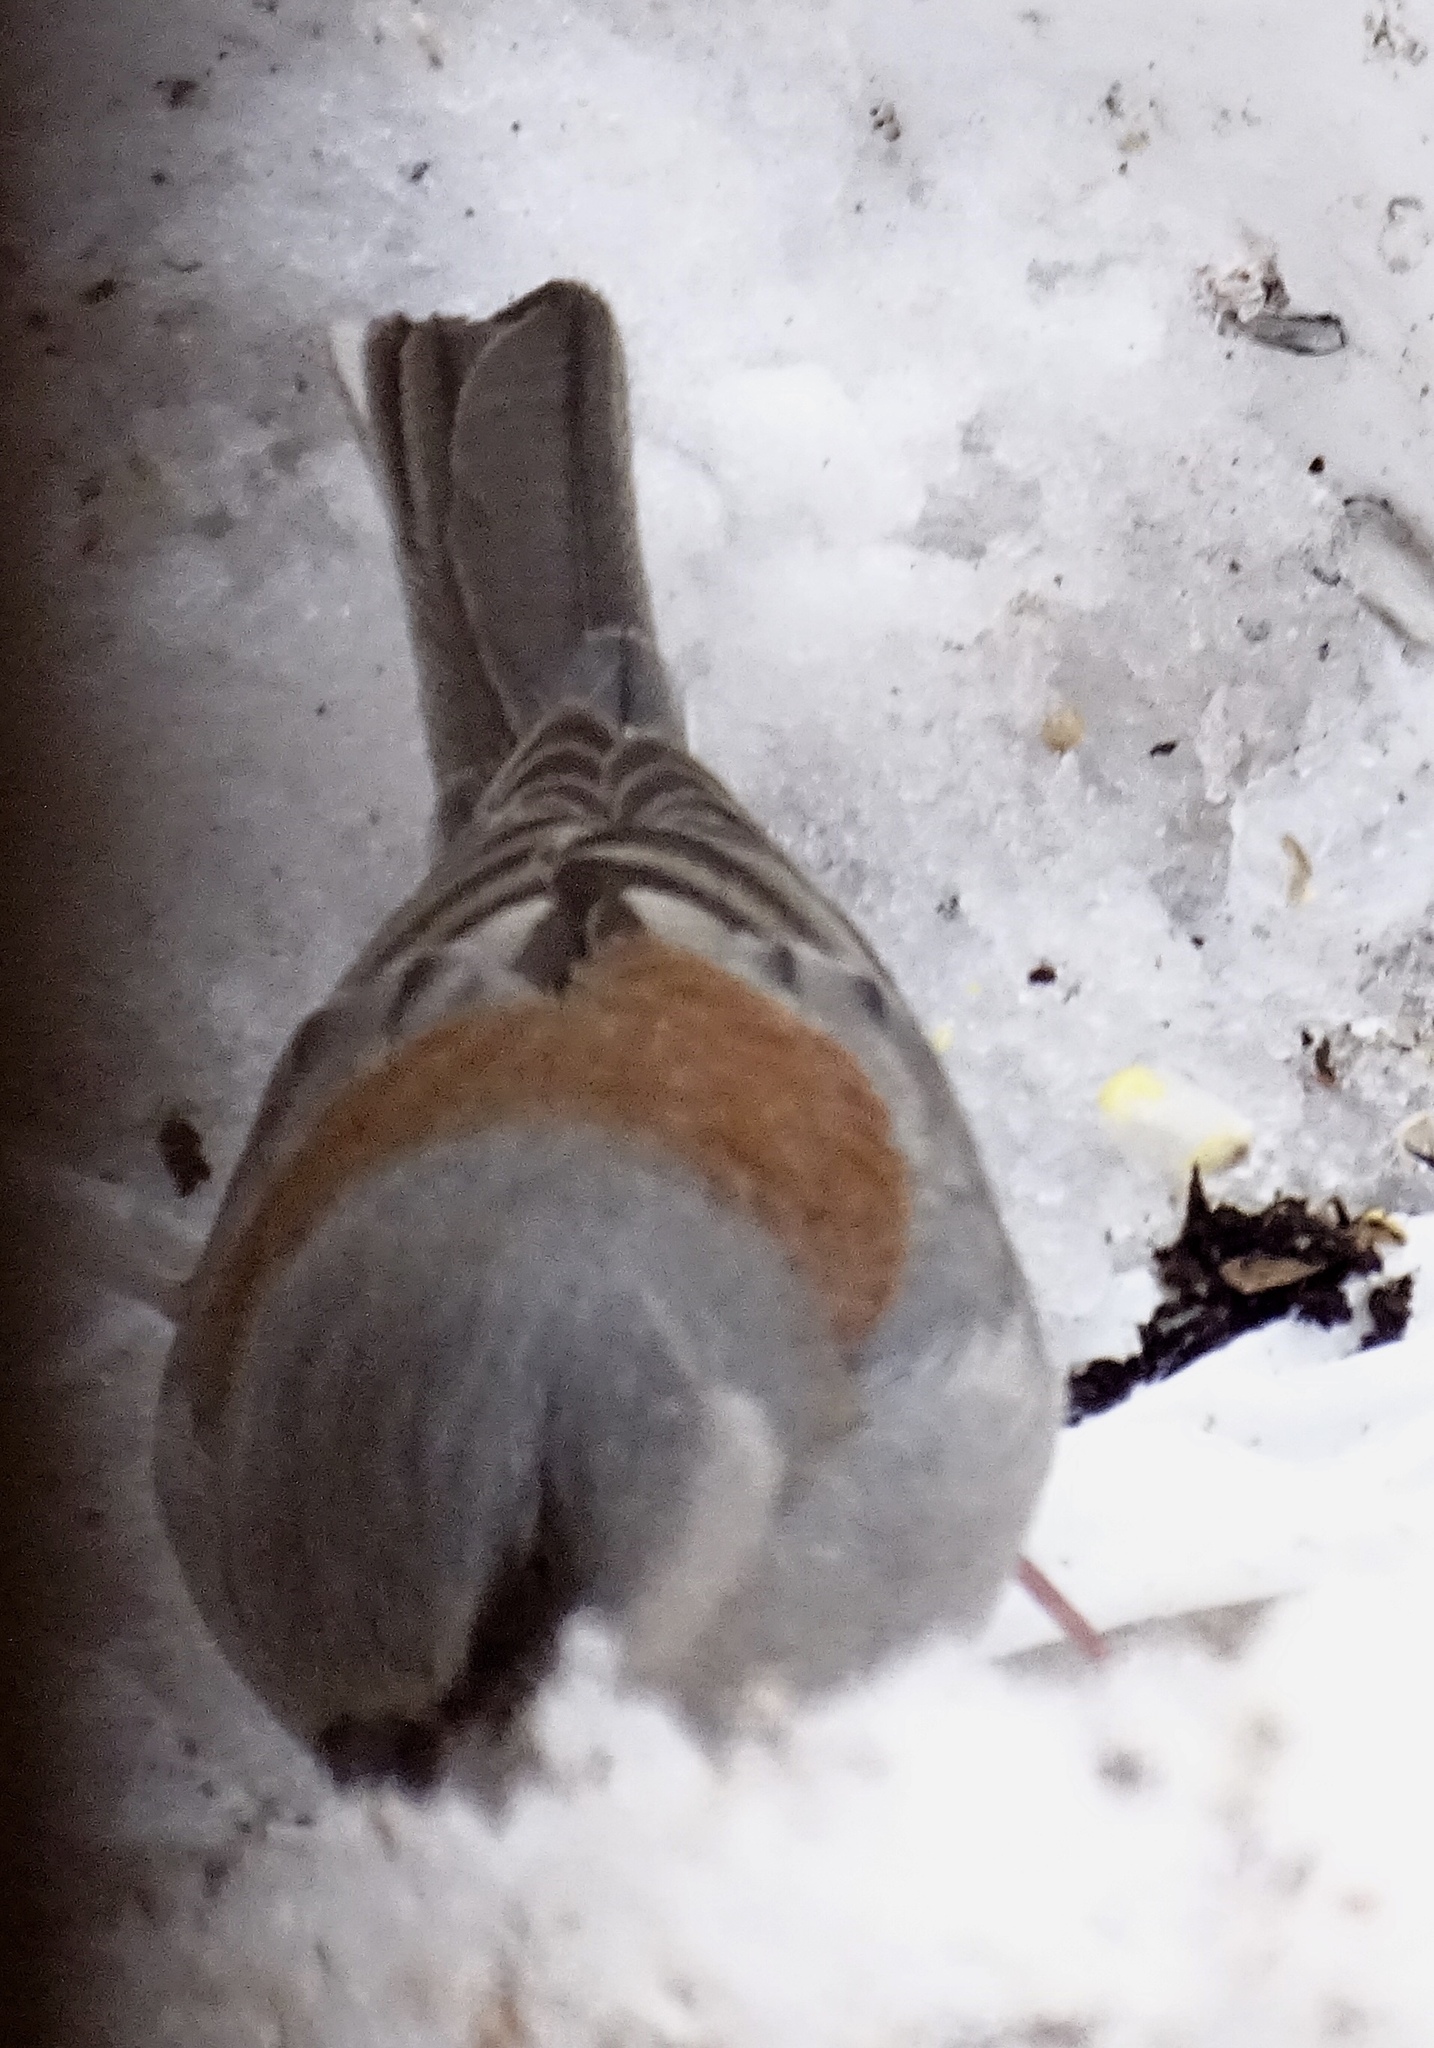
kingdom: Animalia
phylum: Chordata
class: Aves
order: Passeriformes
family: Passerellidae
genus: Junco
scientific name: Junco hyemalis
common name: Dark-eyed junco
